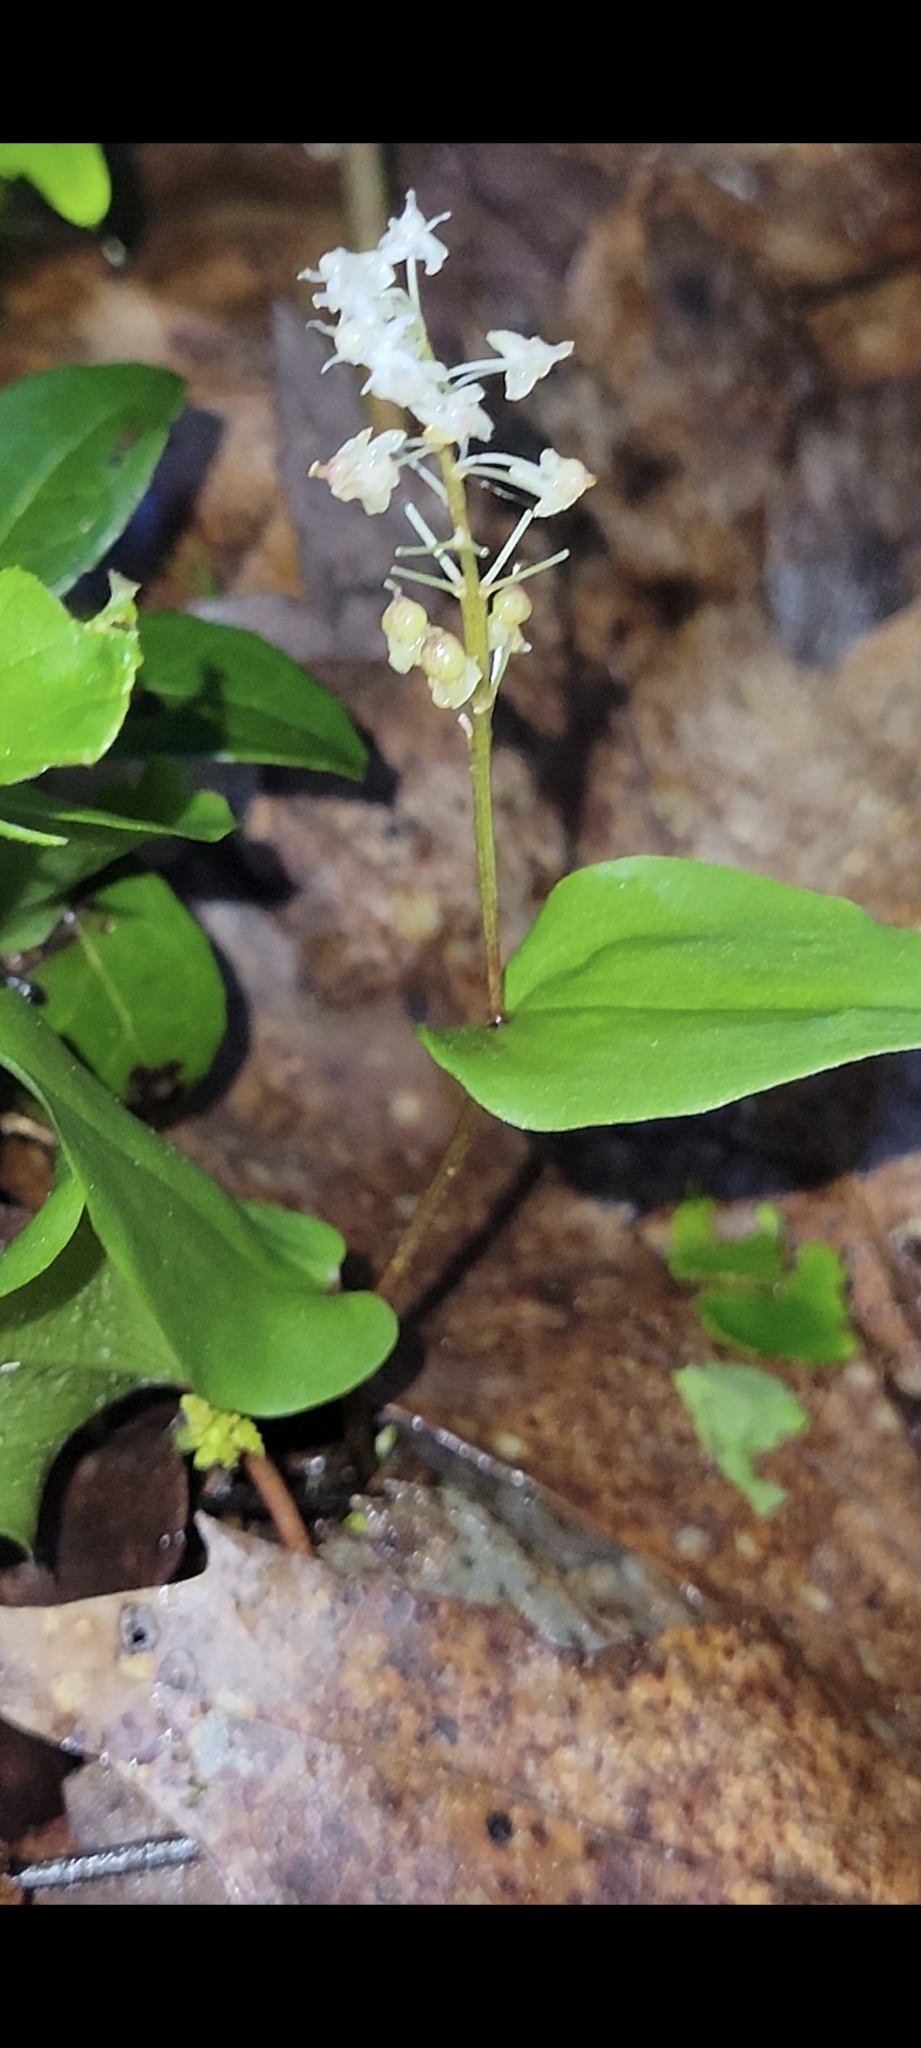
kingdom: Plantae
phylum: Tracheophyta
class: Liliopsida
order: Asparagales
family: Asparagaceae
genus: Maianthemum
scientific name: Maianthemum canadense
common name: False lily-of-the-valley
